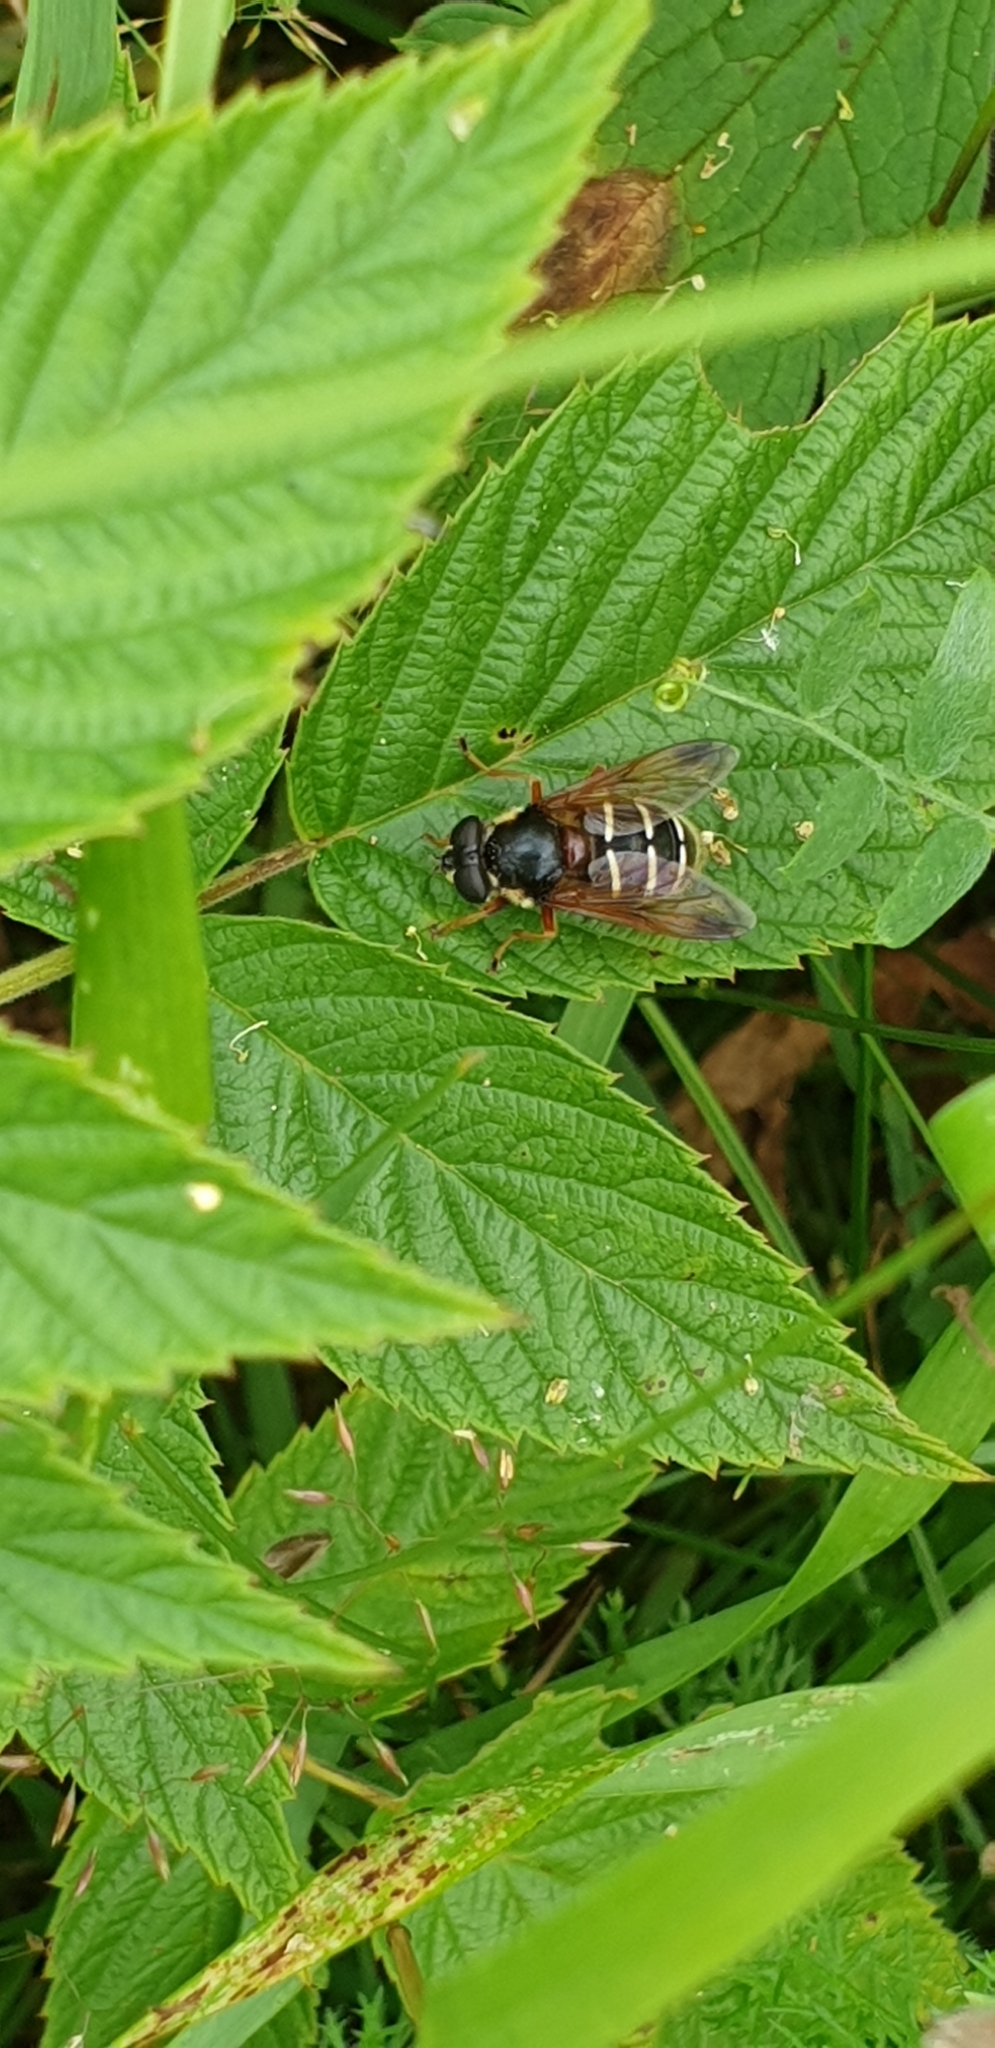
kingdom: Animalia
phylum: Arthropoda
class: Insecta
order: Diptera
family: Syrphidae
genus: Sericomyia
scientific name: Sericomyia lappona
